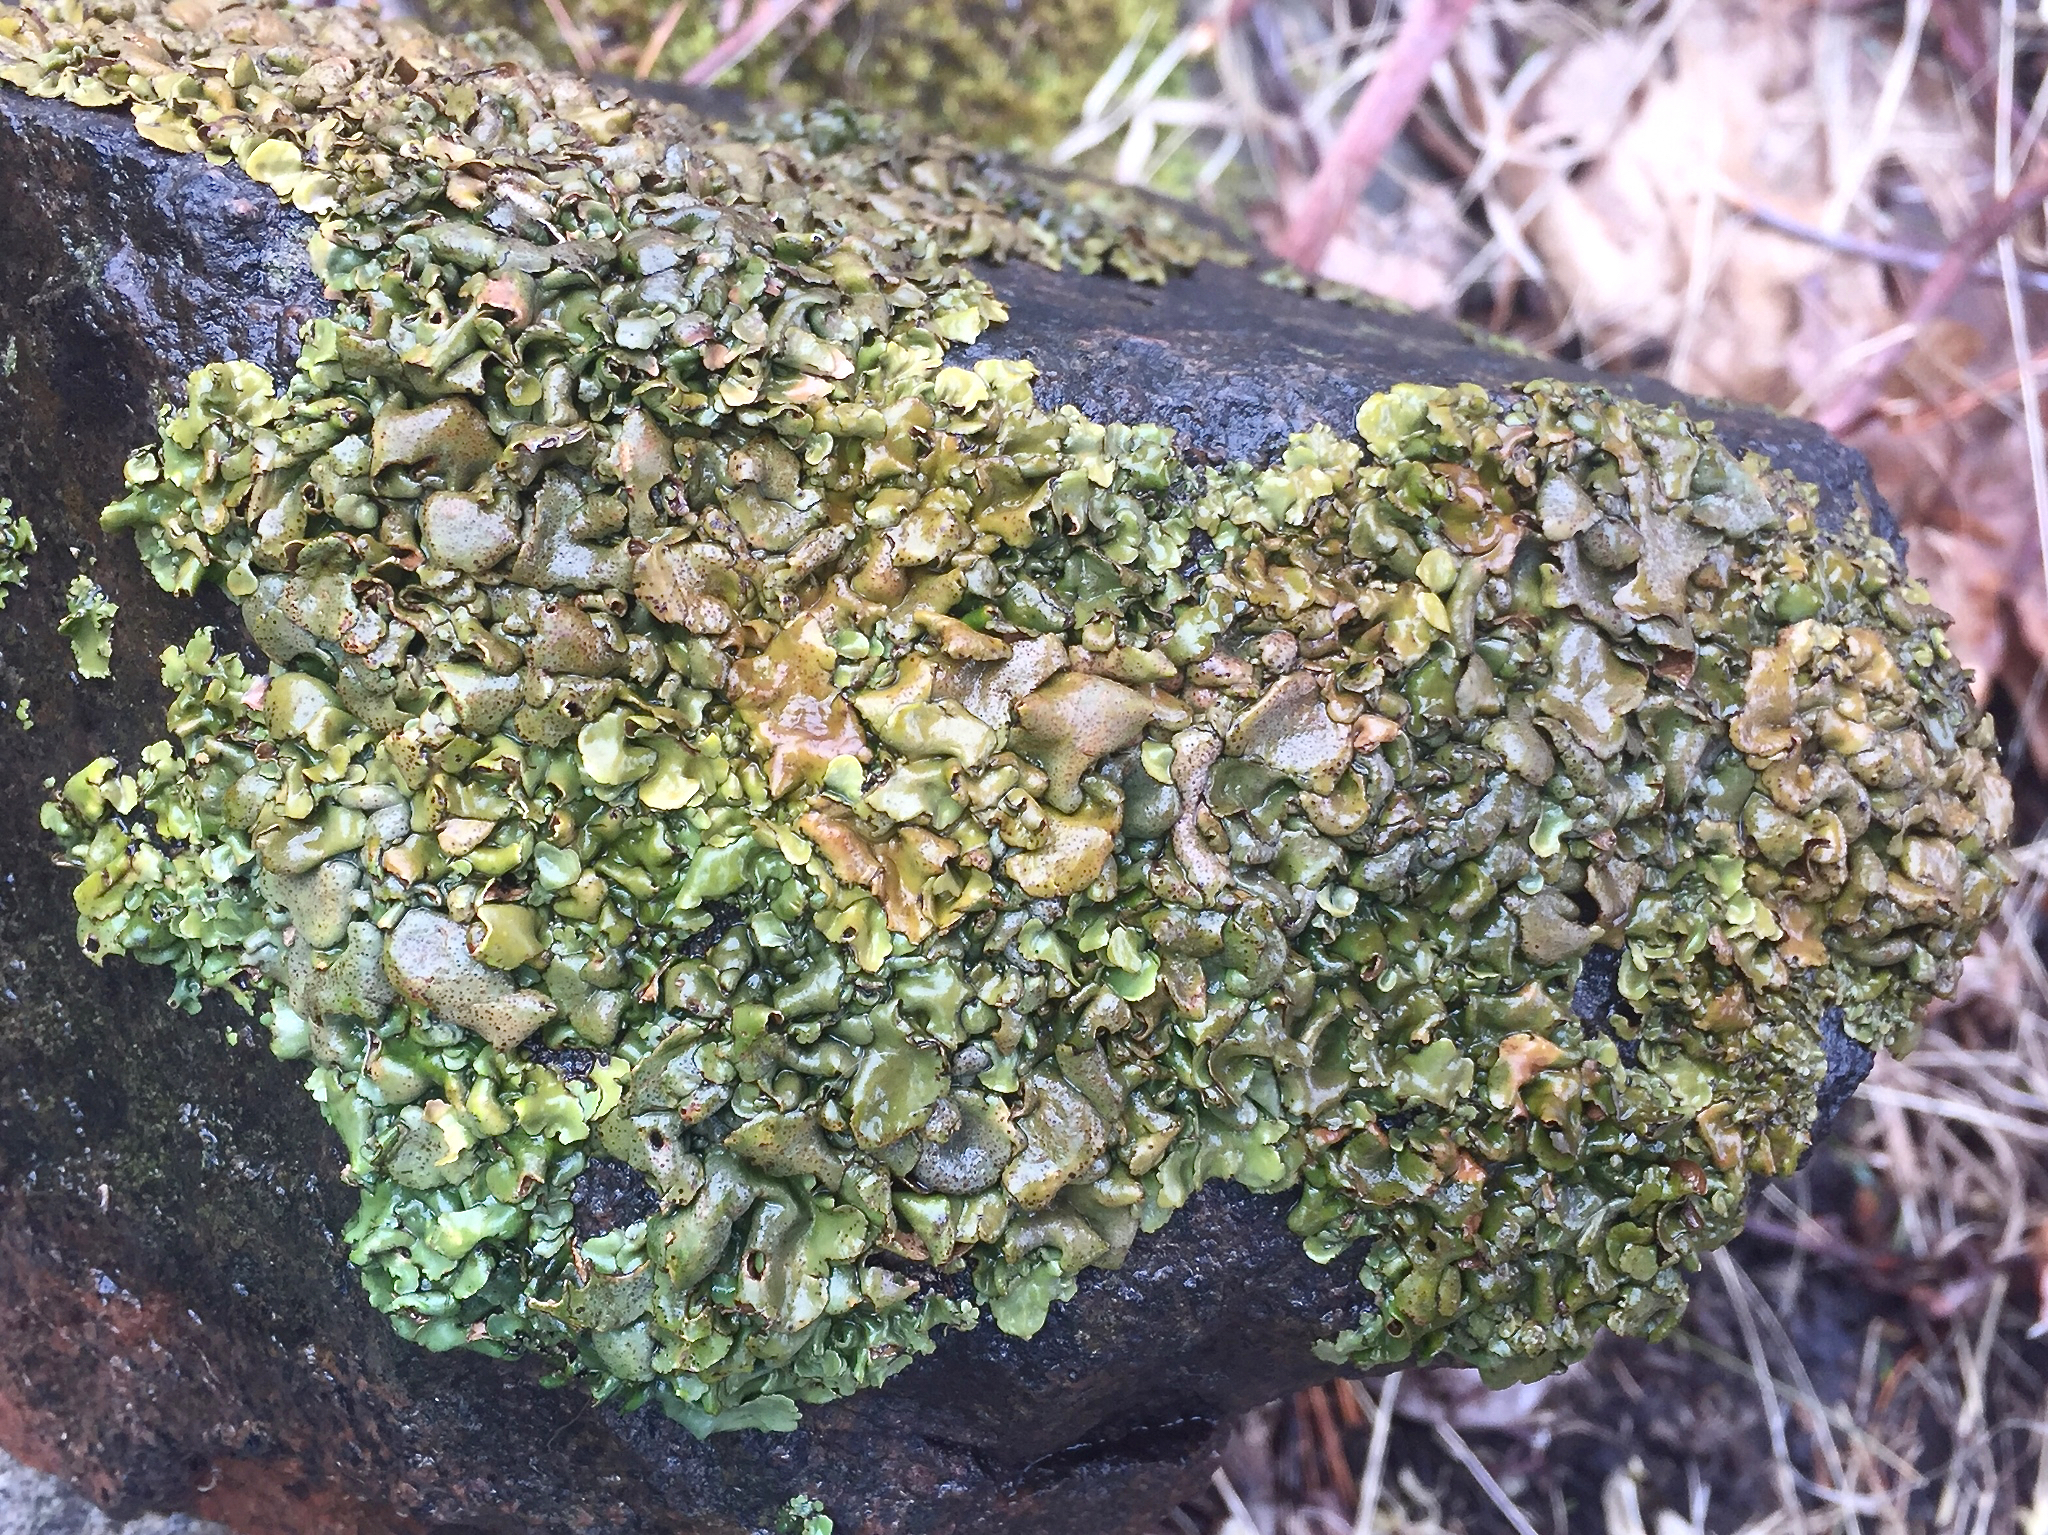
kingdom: Fungi
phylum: Ascomycota
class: Eurotiomycetes
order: Verrucariales
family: Verrucariaceae
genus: Dermatocarpon
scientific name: Dermatocarpon luridum
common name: Brook stippleback lichen
